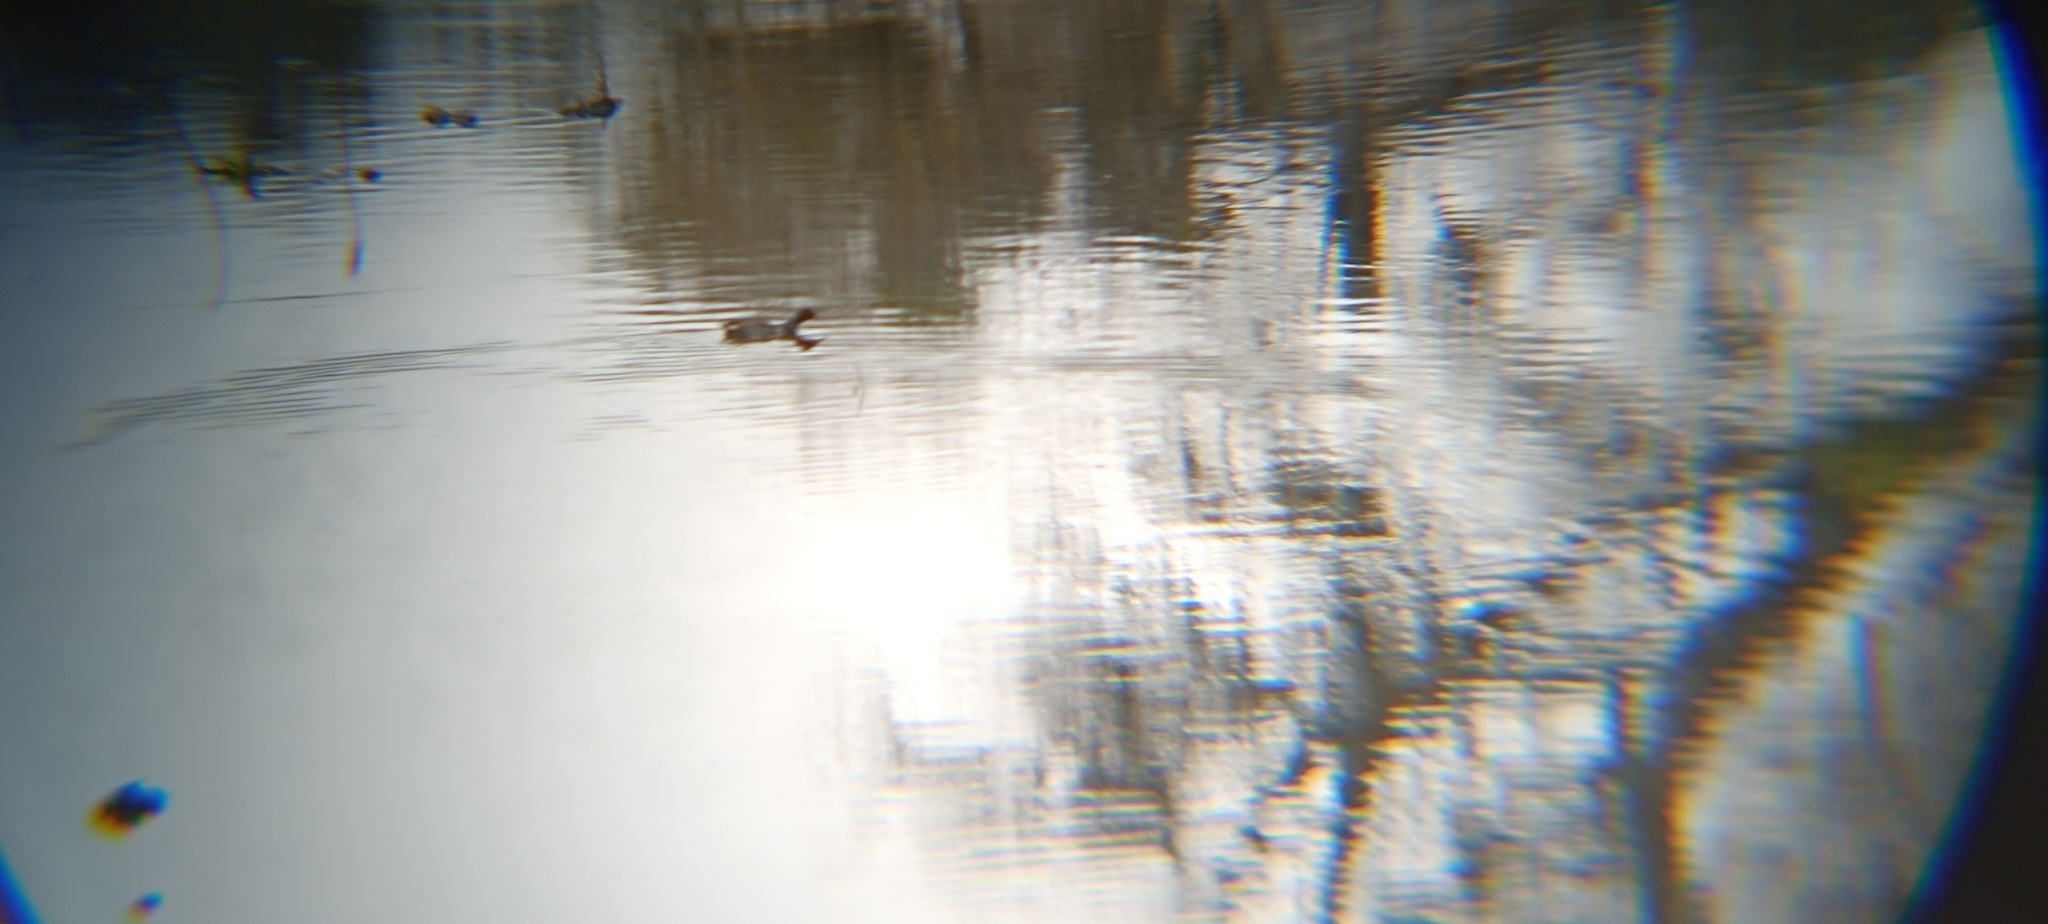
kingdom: Animalia
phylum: Chordata
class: Aves
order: Gruiformes
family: Rallidae
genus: Gallinula
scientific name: Gallinula chloropus
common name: Common moorhen
